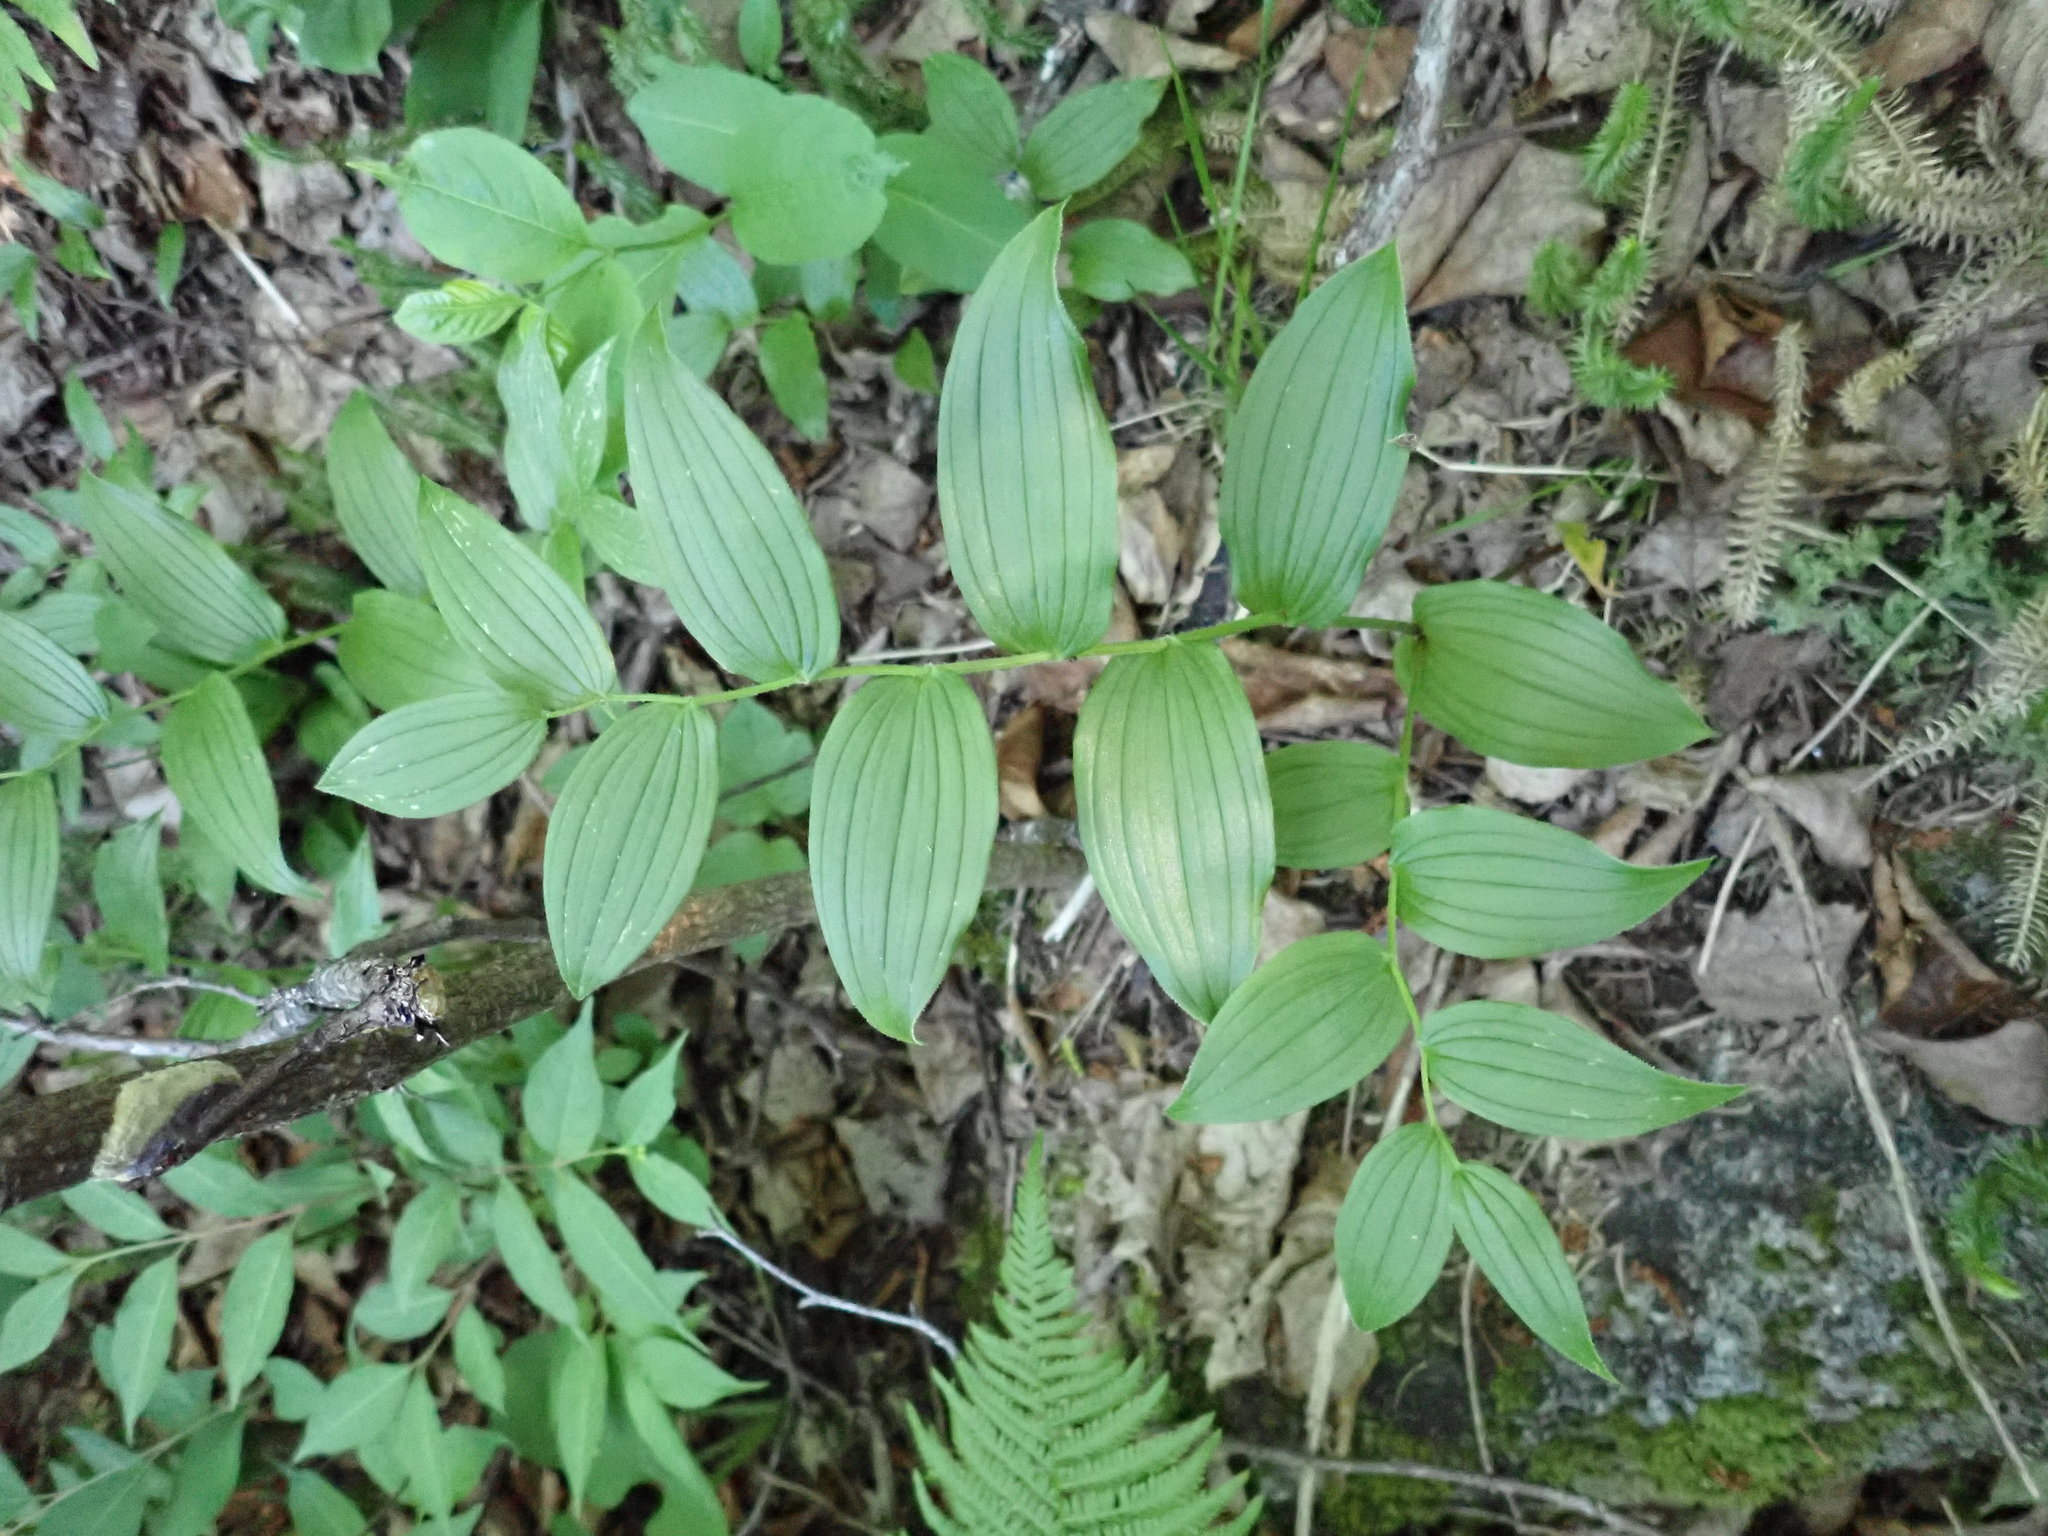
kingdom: Plantae
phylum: Tracheophyta
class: Liliopsida
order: Liliales
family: Liliaceae
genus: Streptopus
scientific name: Streptopus lanceolatus
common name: Rose mandarin
